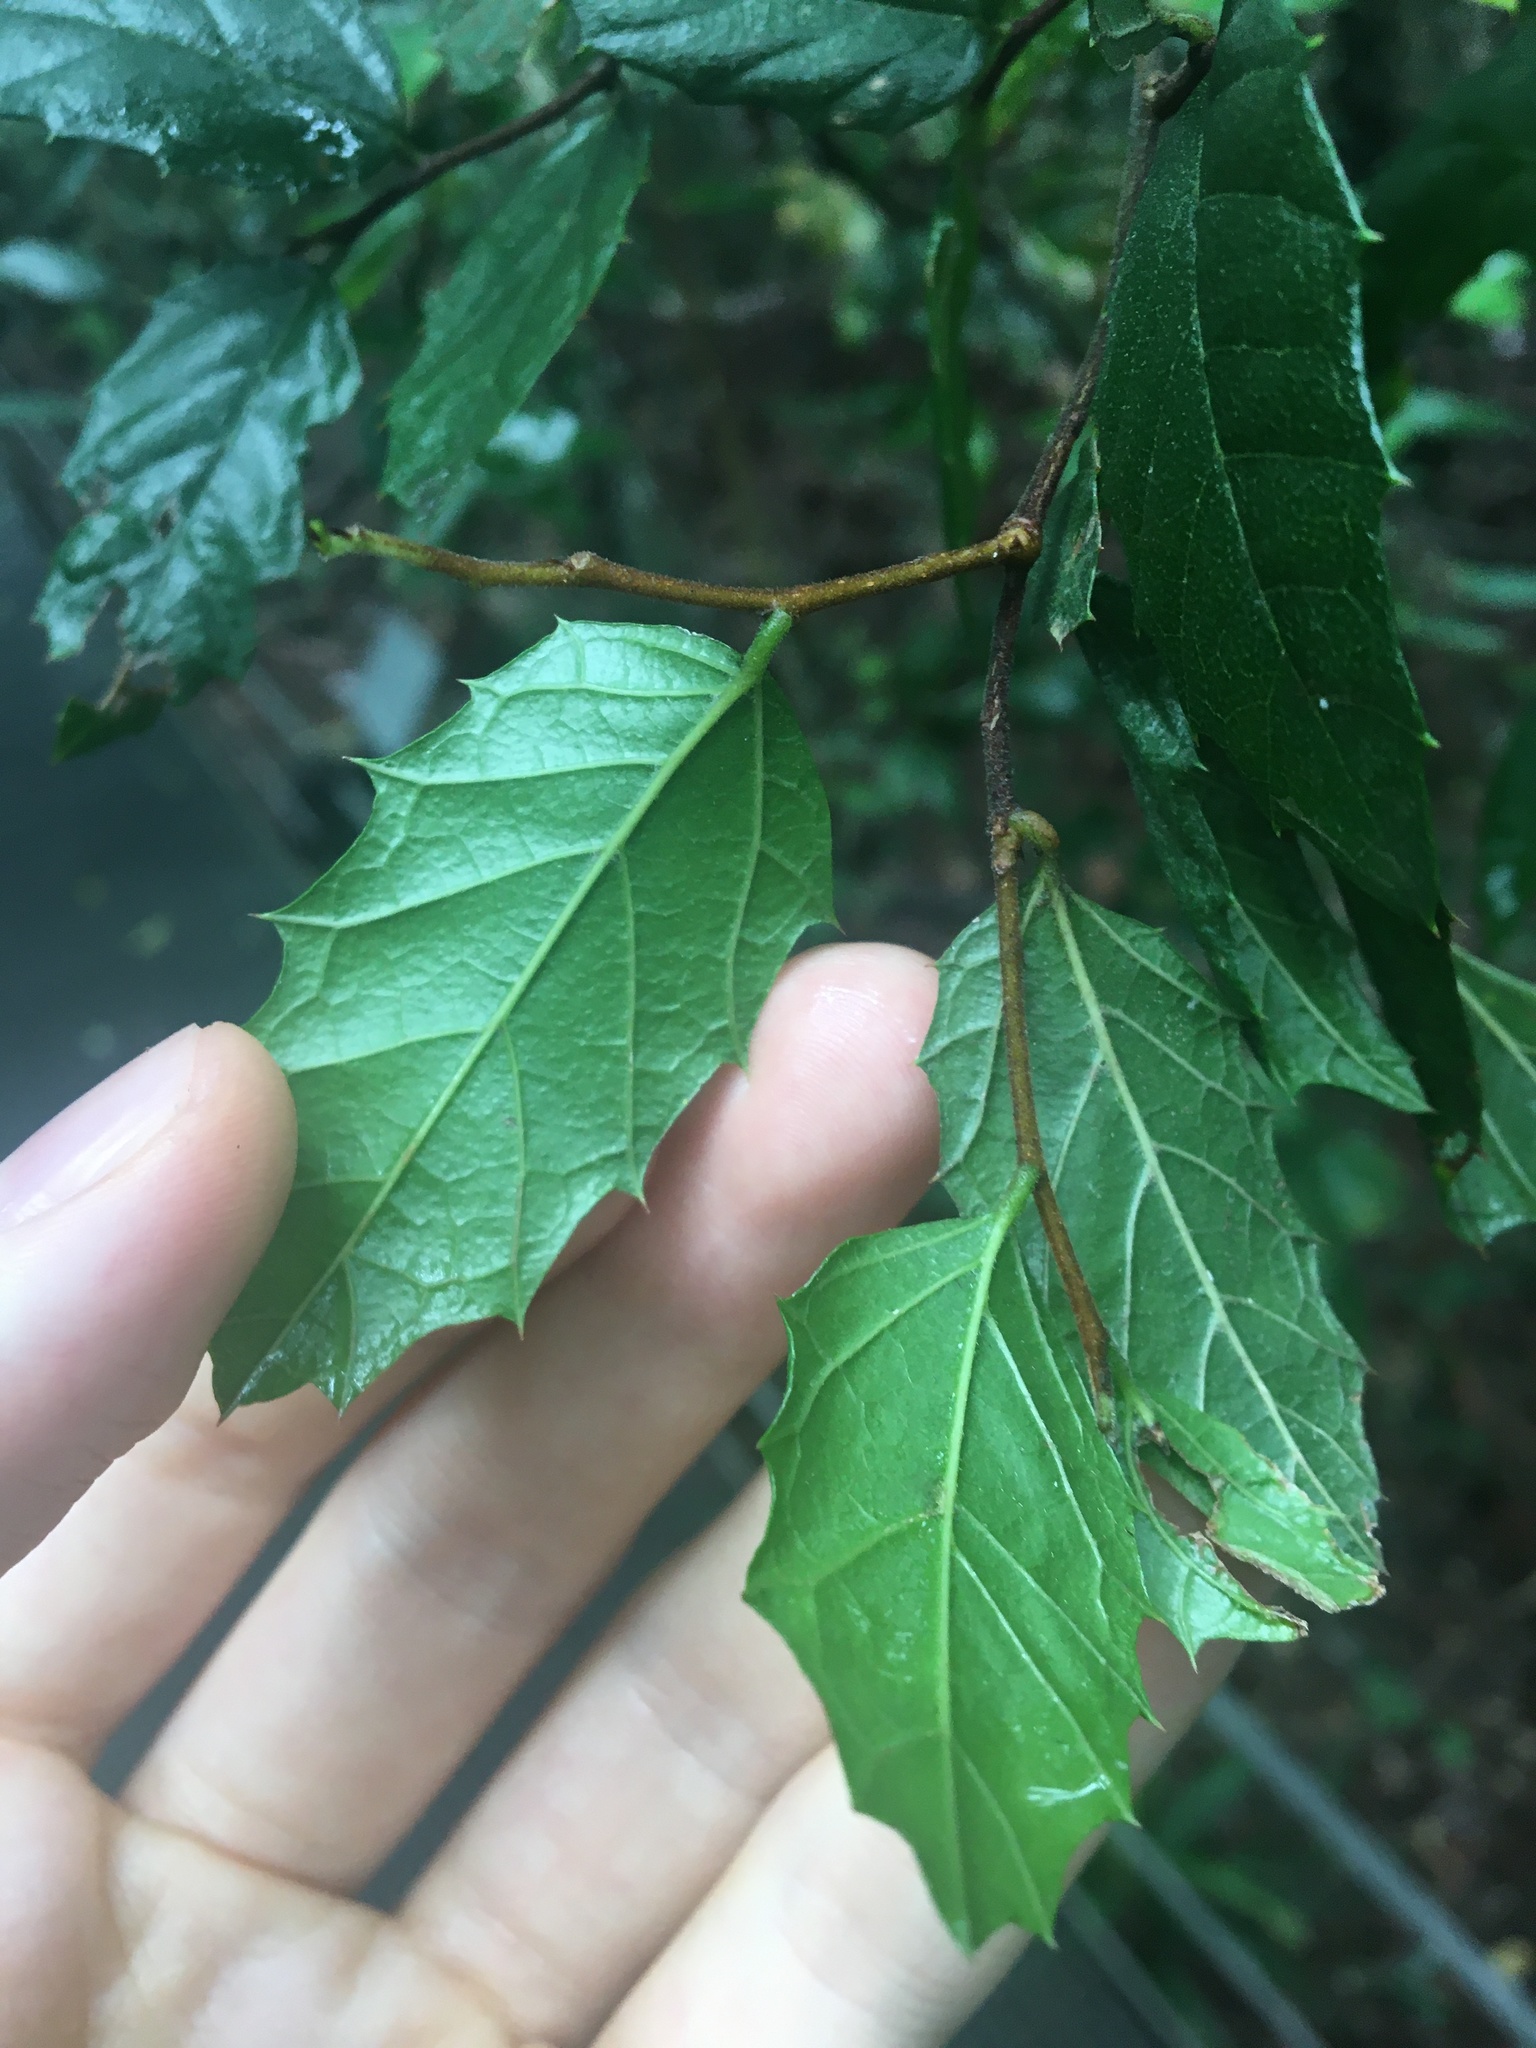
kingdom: Plantae
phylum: Tracheophyta
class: Magnoliopsida
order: Rosales
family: Cannabaceae
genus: Aphananthe
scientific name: Aphananthe philippinensis
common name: Wild holly
